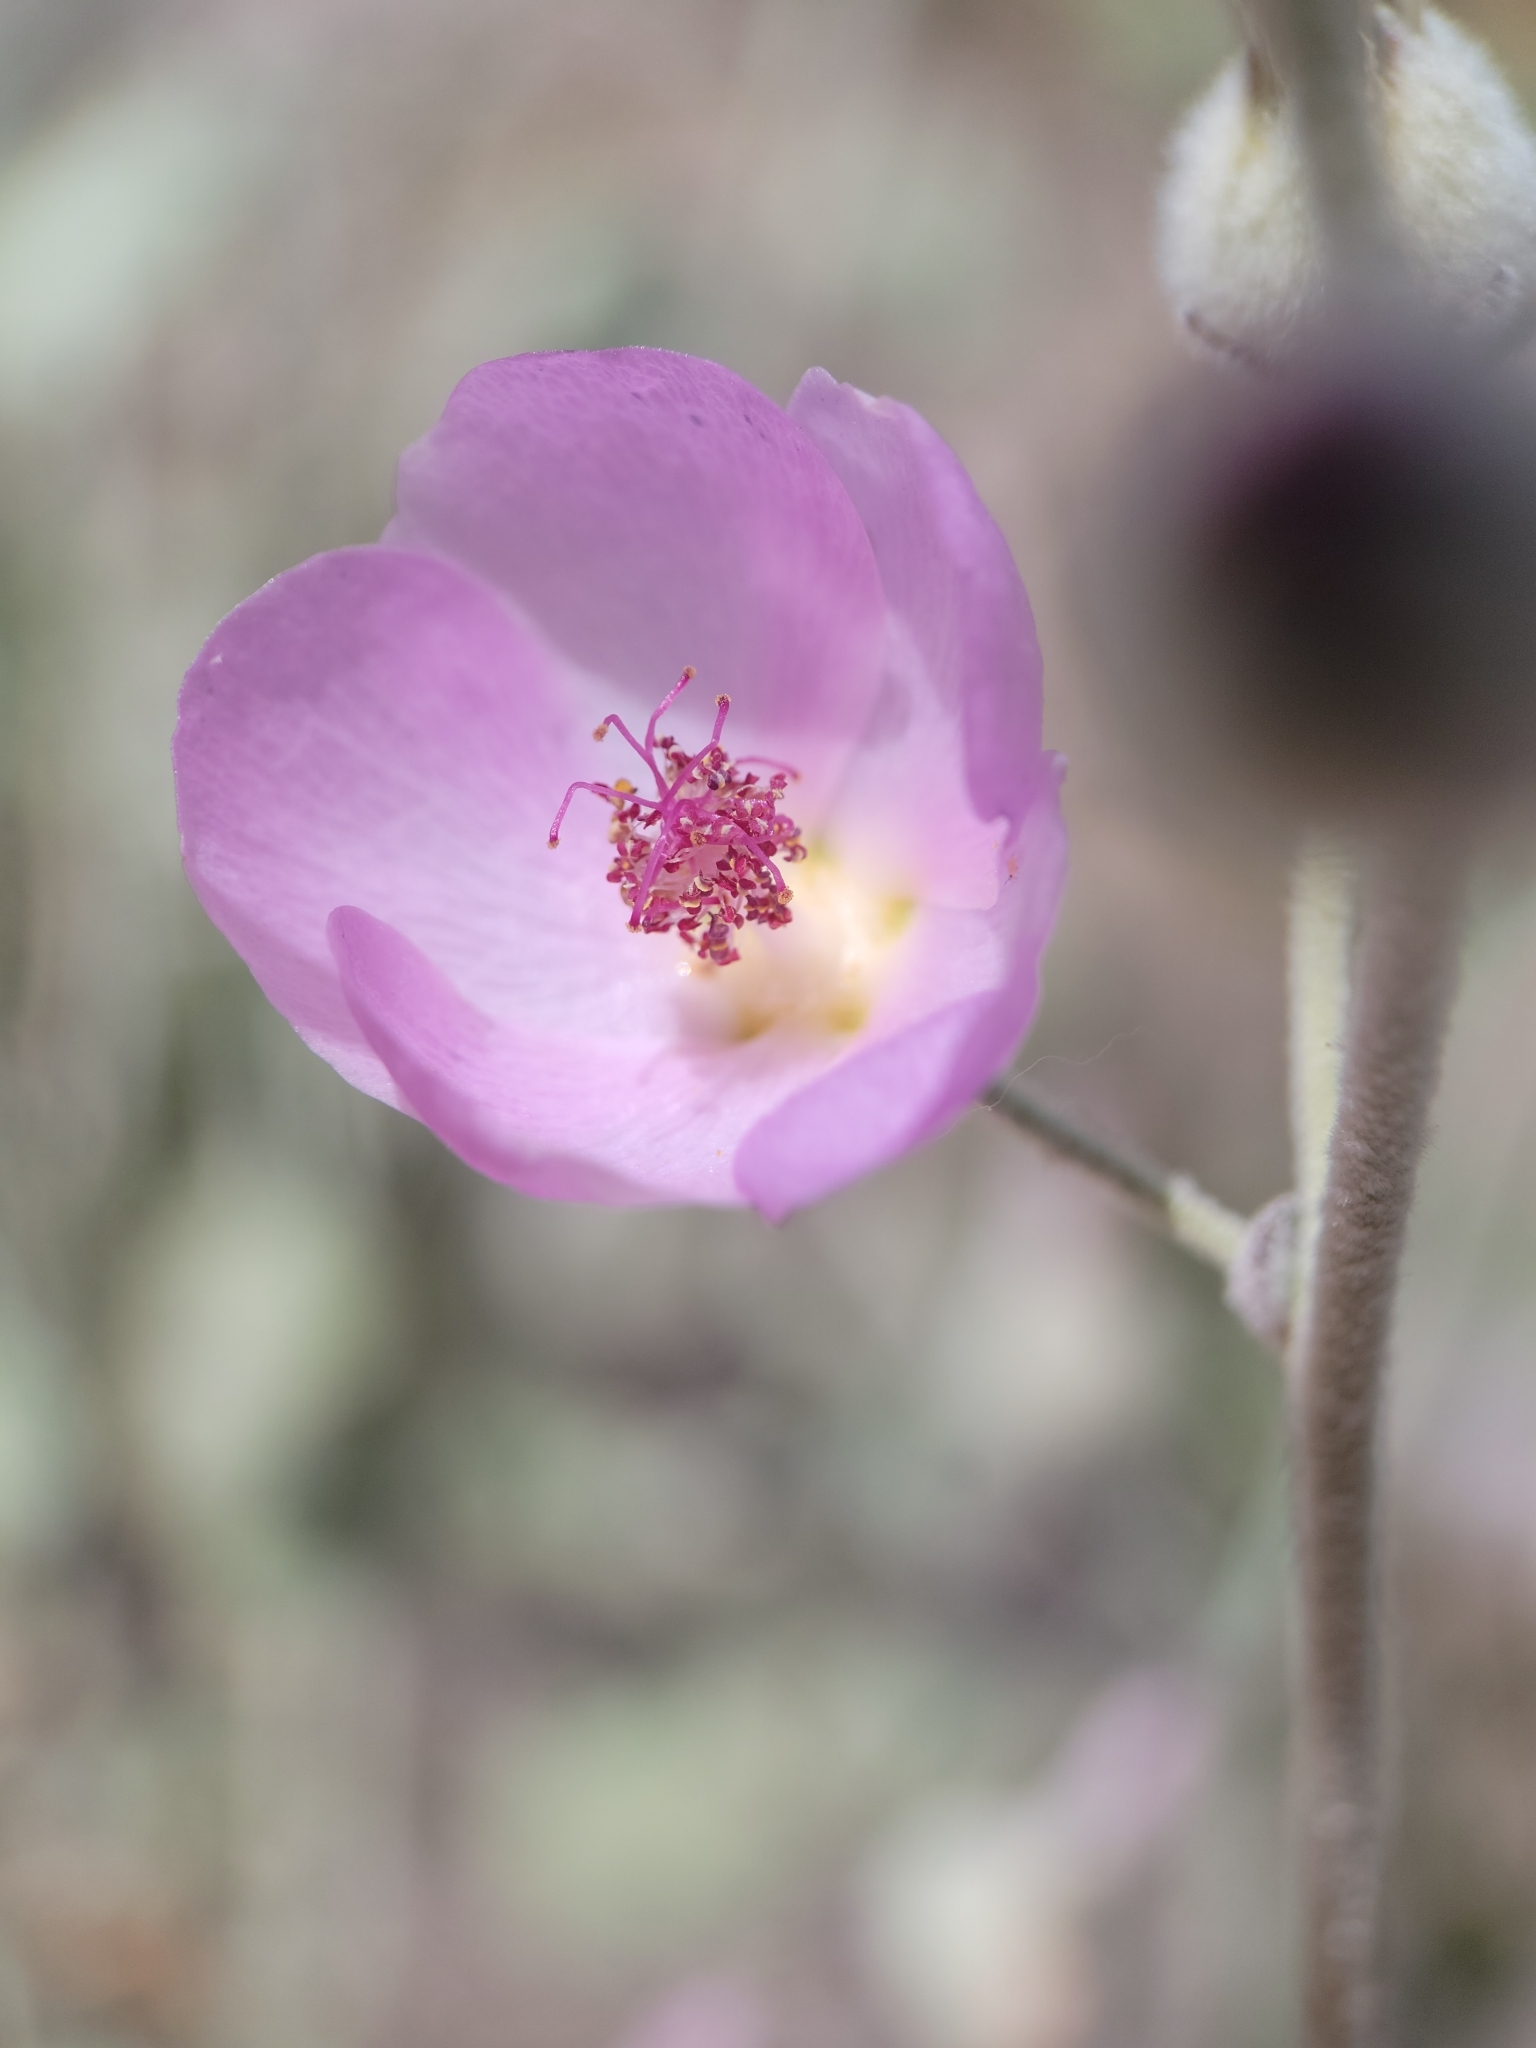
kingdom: Plantae
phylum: Tracheophyta
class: Magnoliopsida
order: Malvales
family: Malvaceae
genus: Malacothamnus
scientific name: Malacothamnus jonesii
